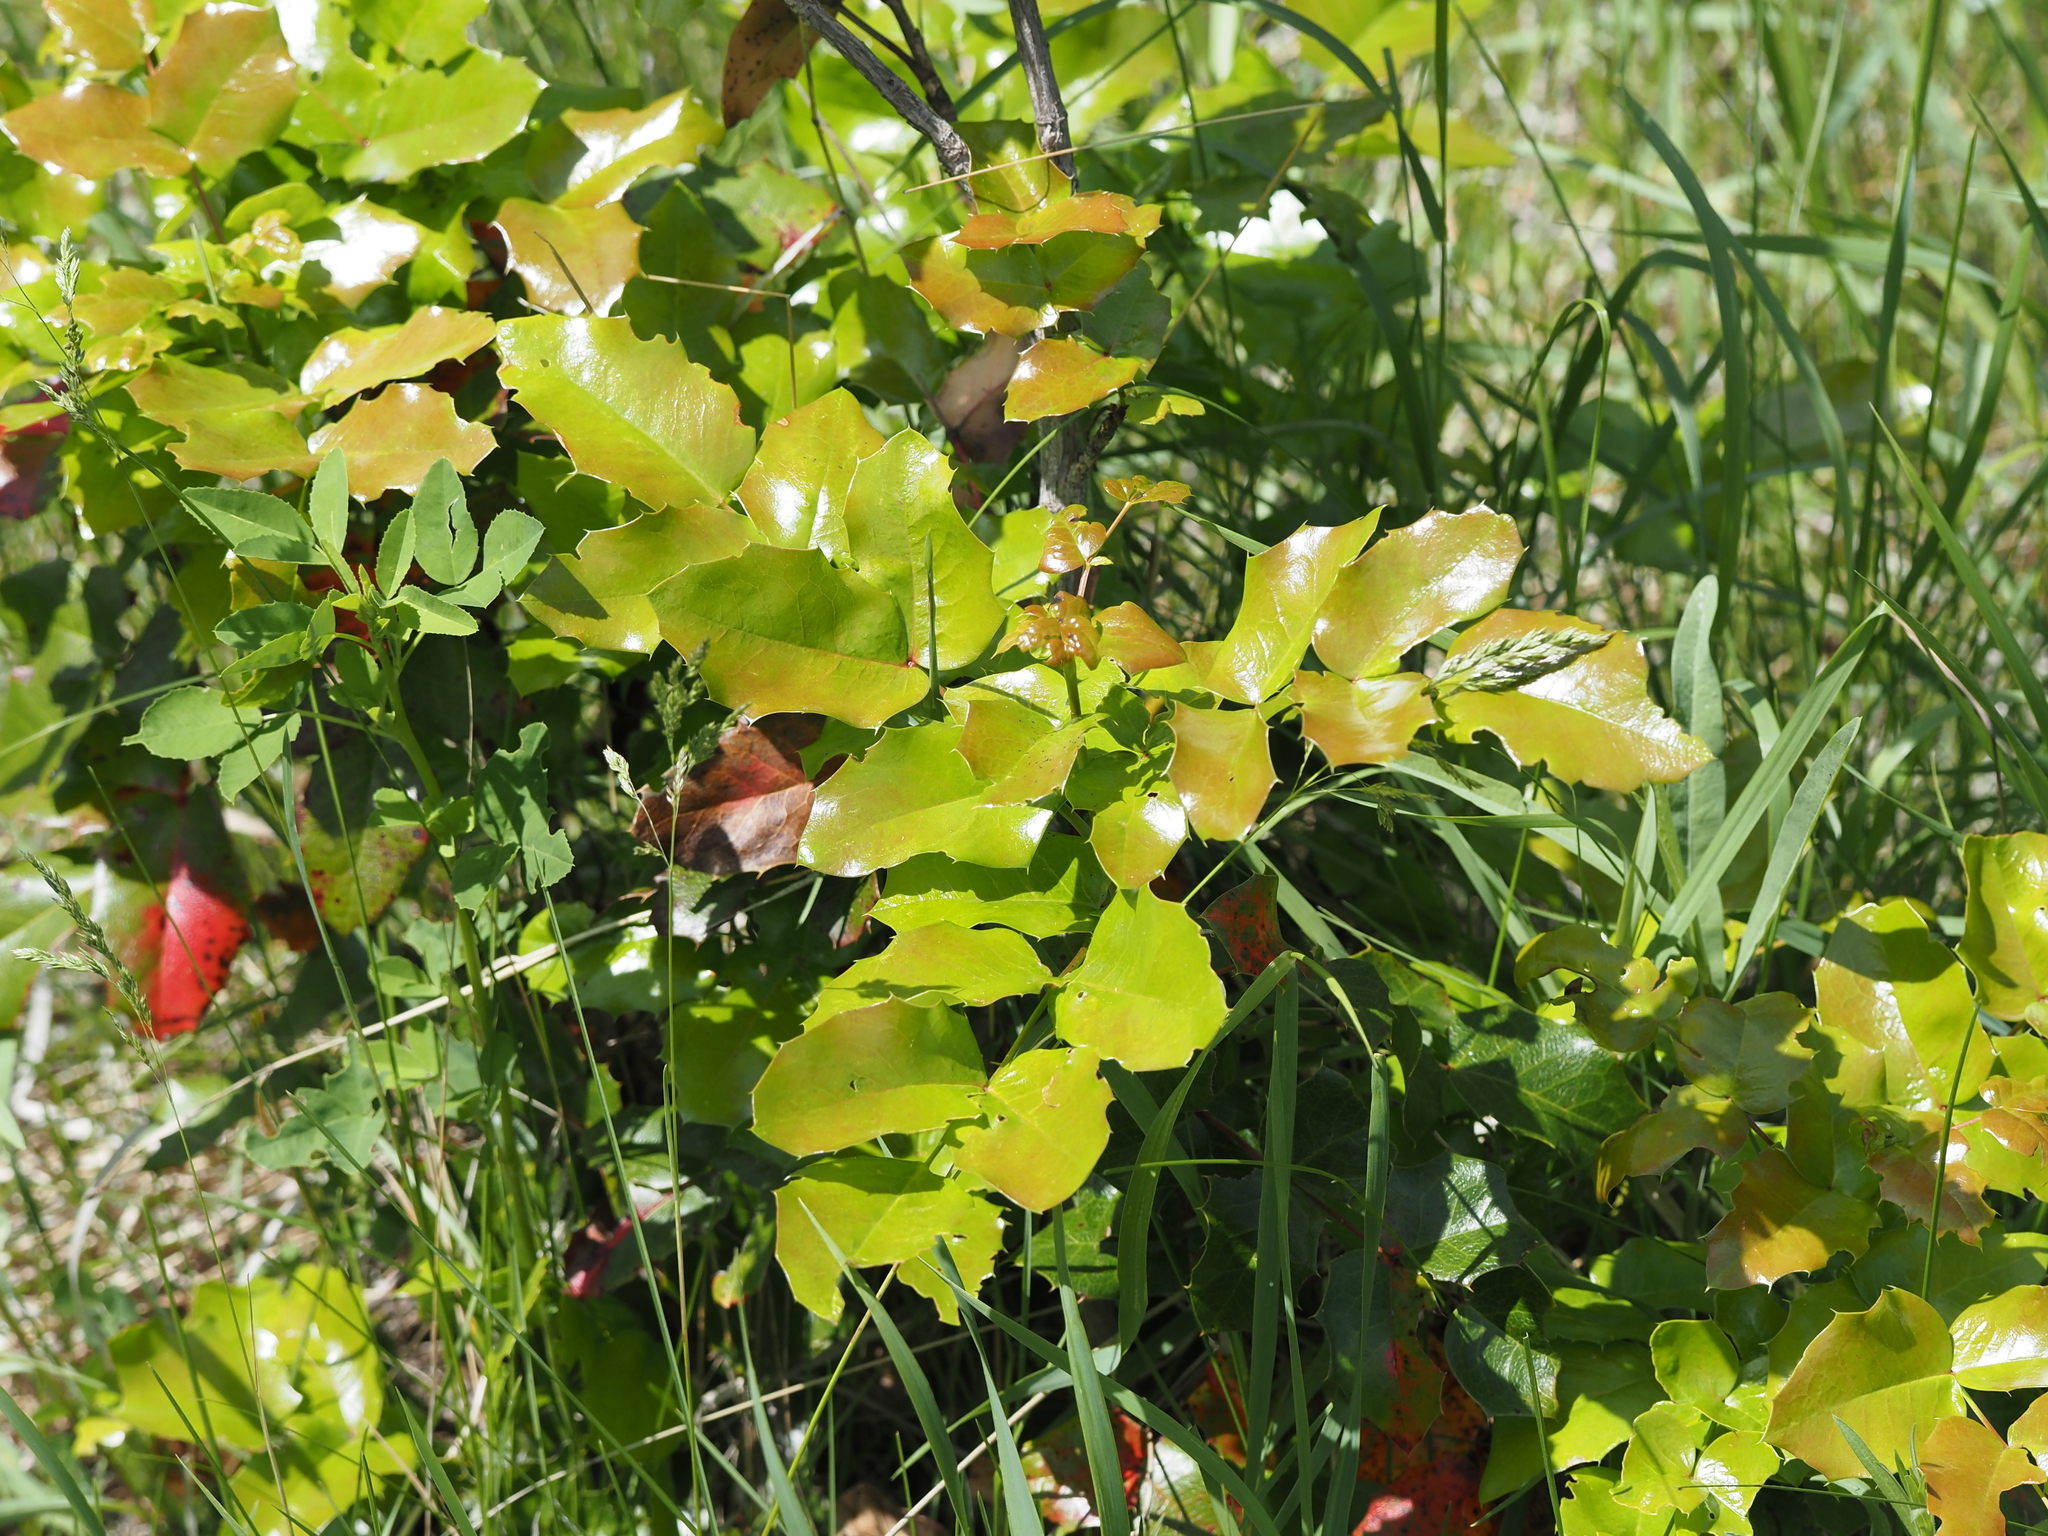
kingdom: Plantae
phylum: Tracheophyta
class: Magnoliopsida
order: Ranunculales
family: Berberidaceae
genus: Mahonia
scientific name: Mahonia aquifolium
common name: Oregon-grape
